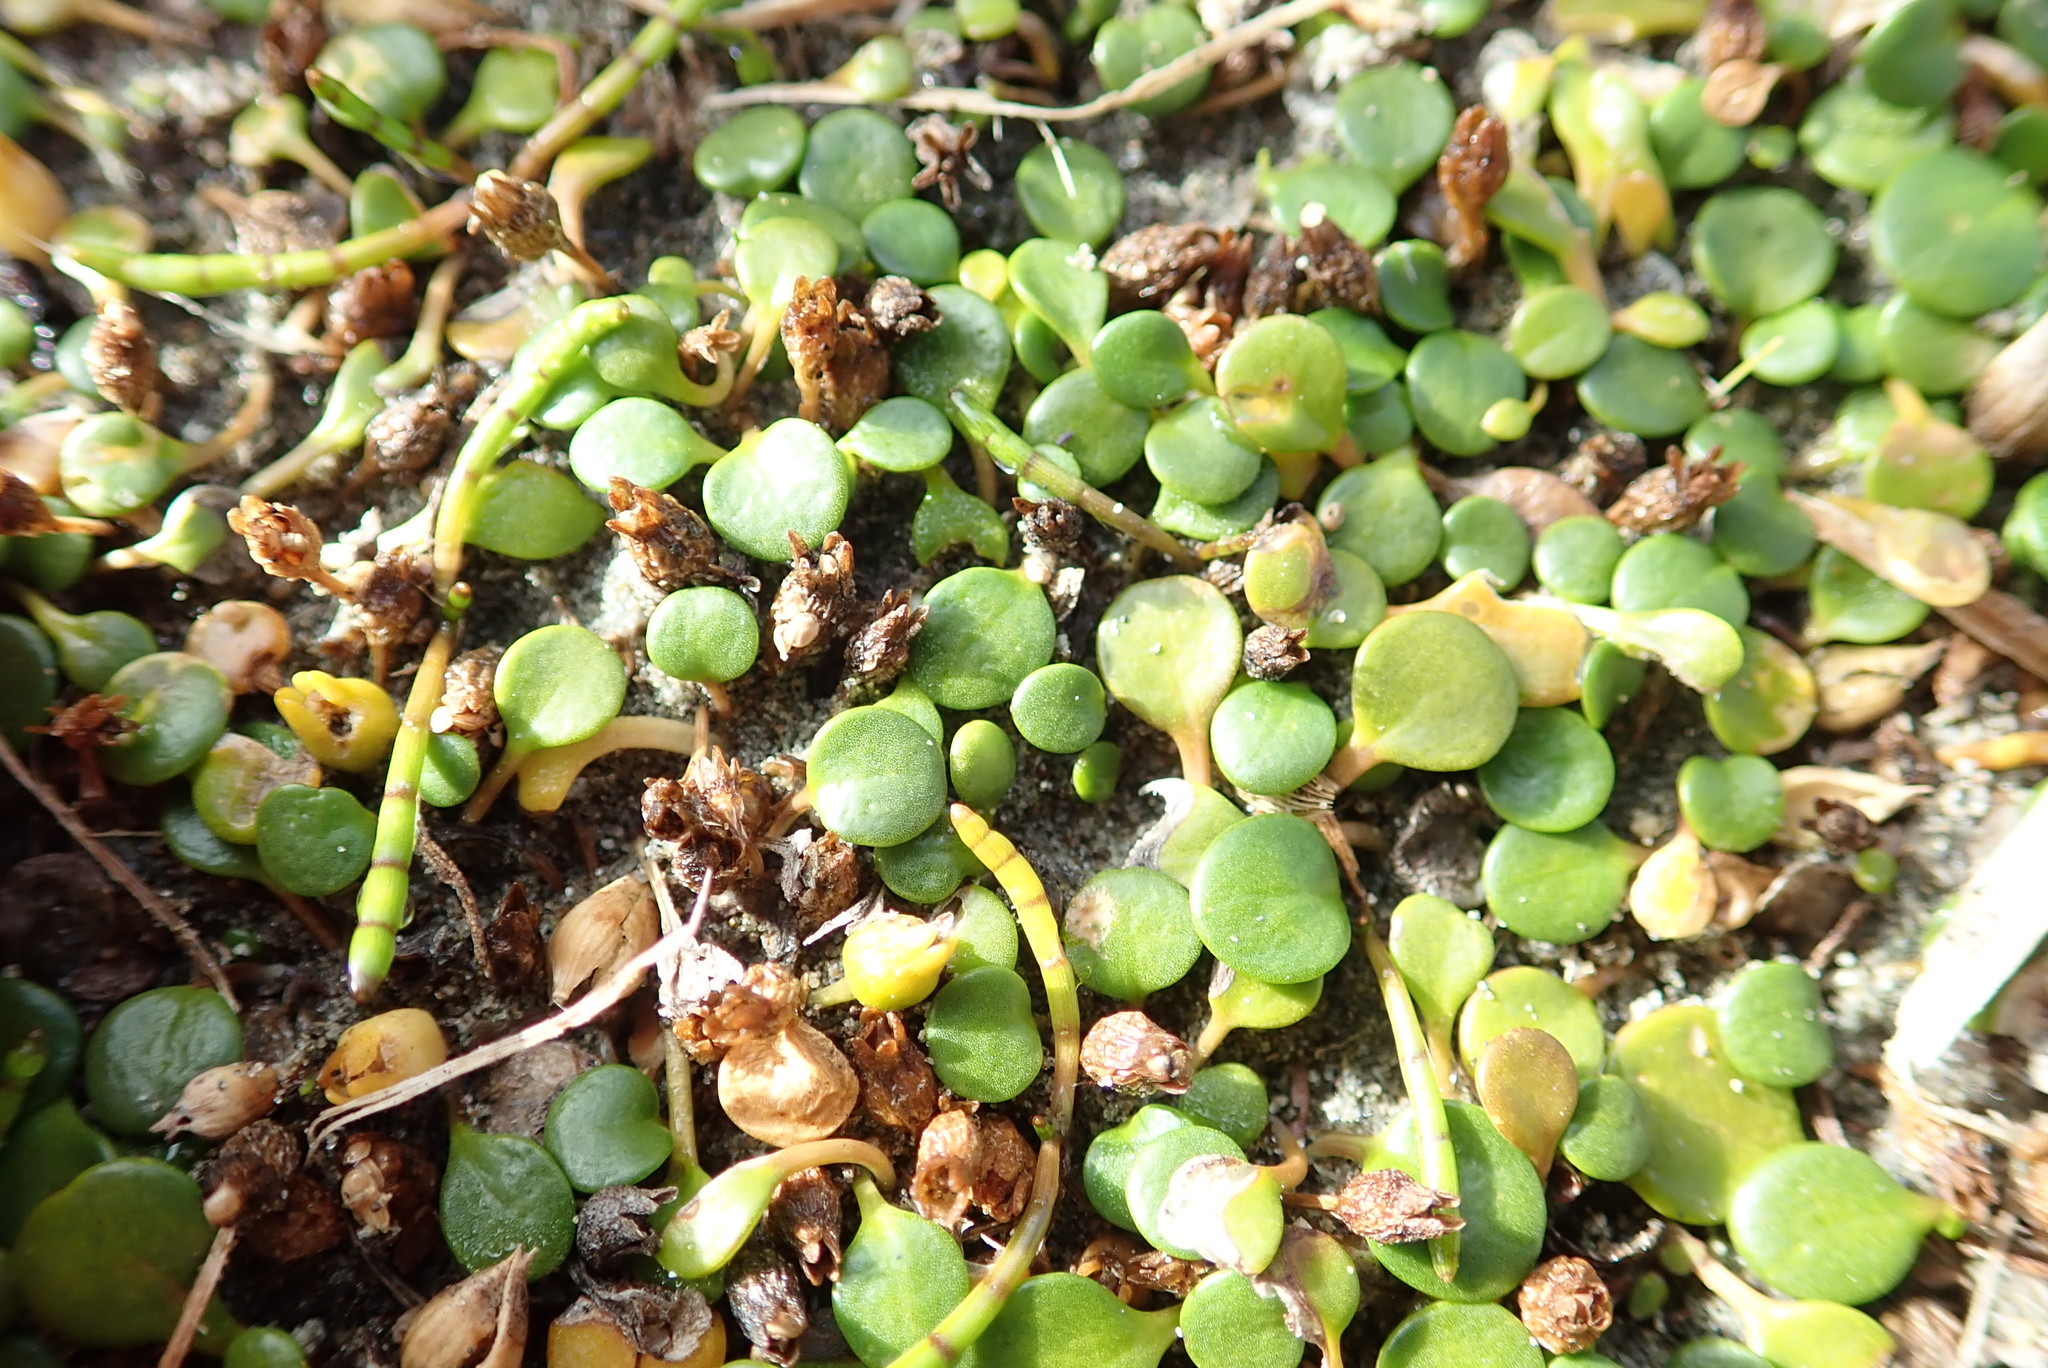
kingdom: Plantae
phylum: Tracheophyta
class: Magnoliopsida
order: Asterales
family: Goodeniaceae
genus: Goodenia
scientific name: Goodenia heenanii
